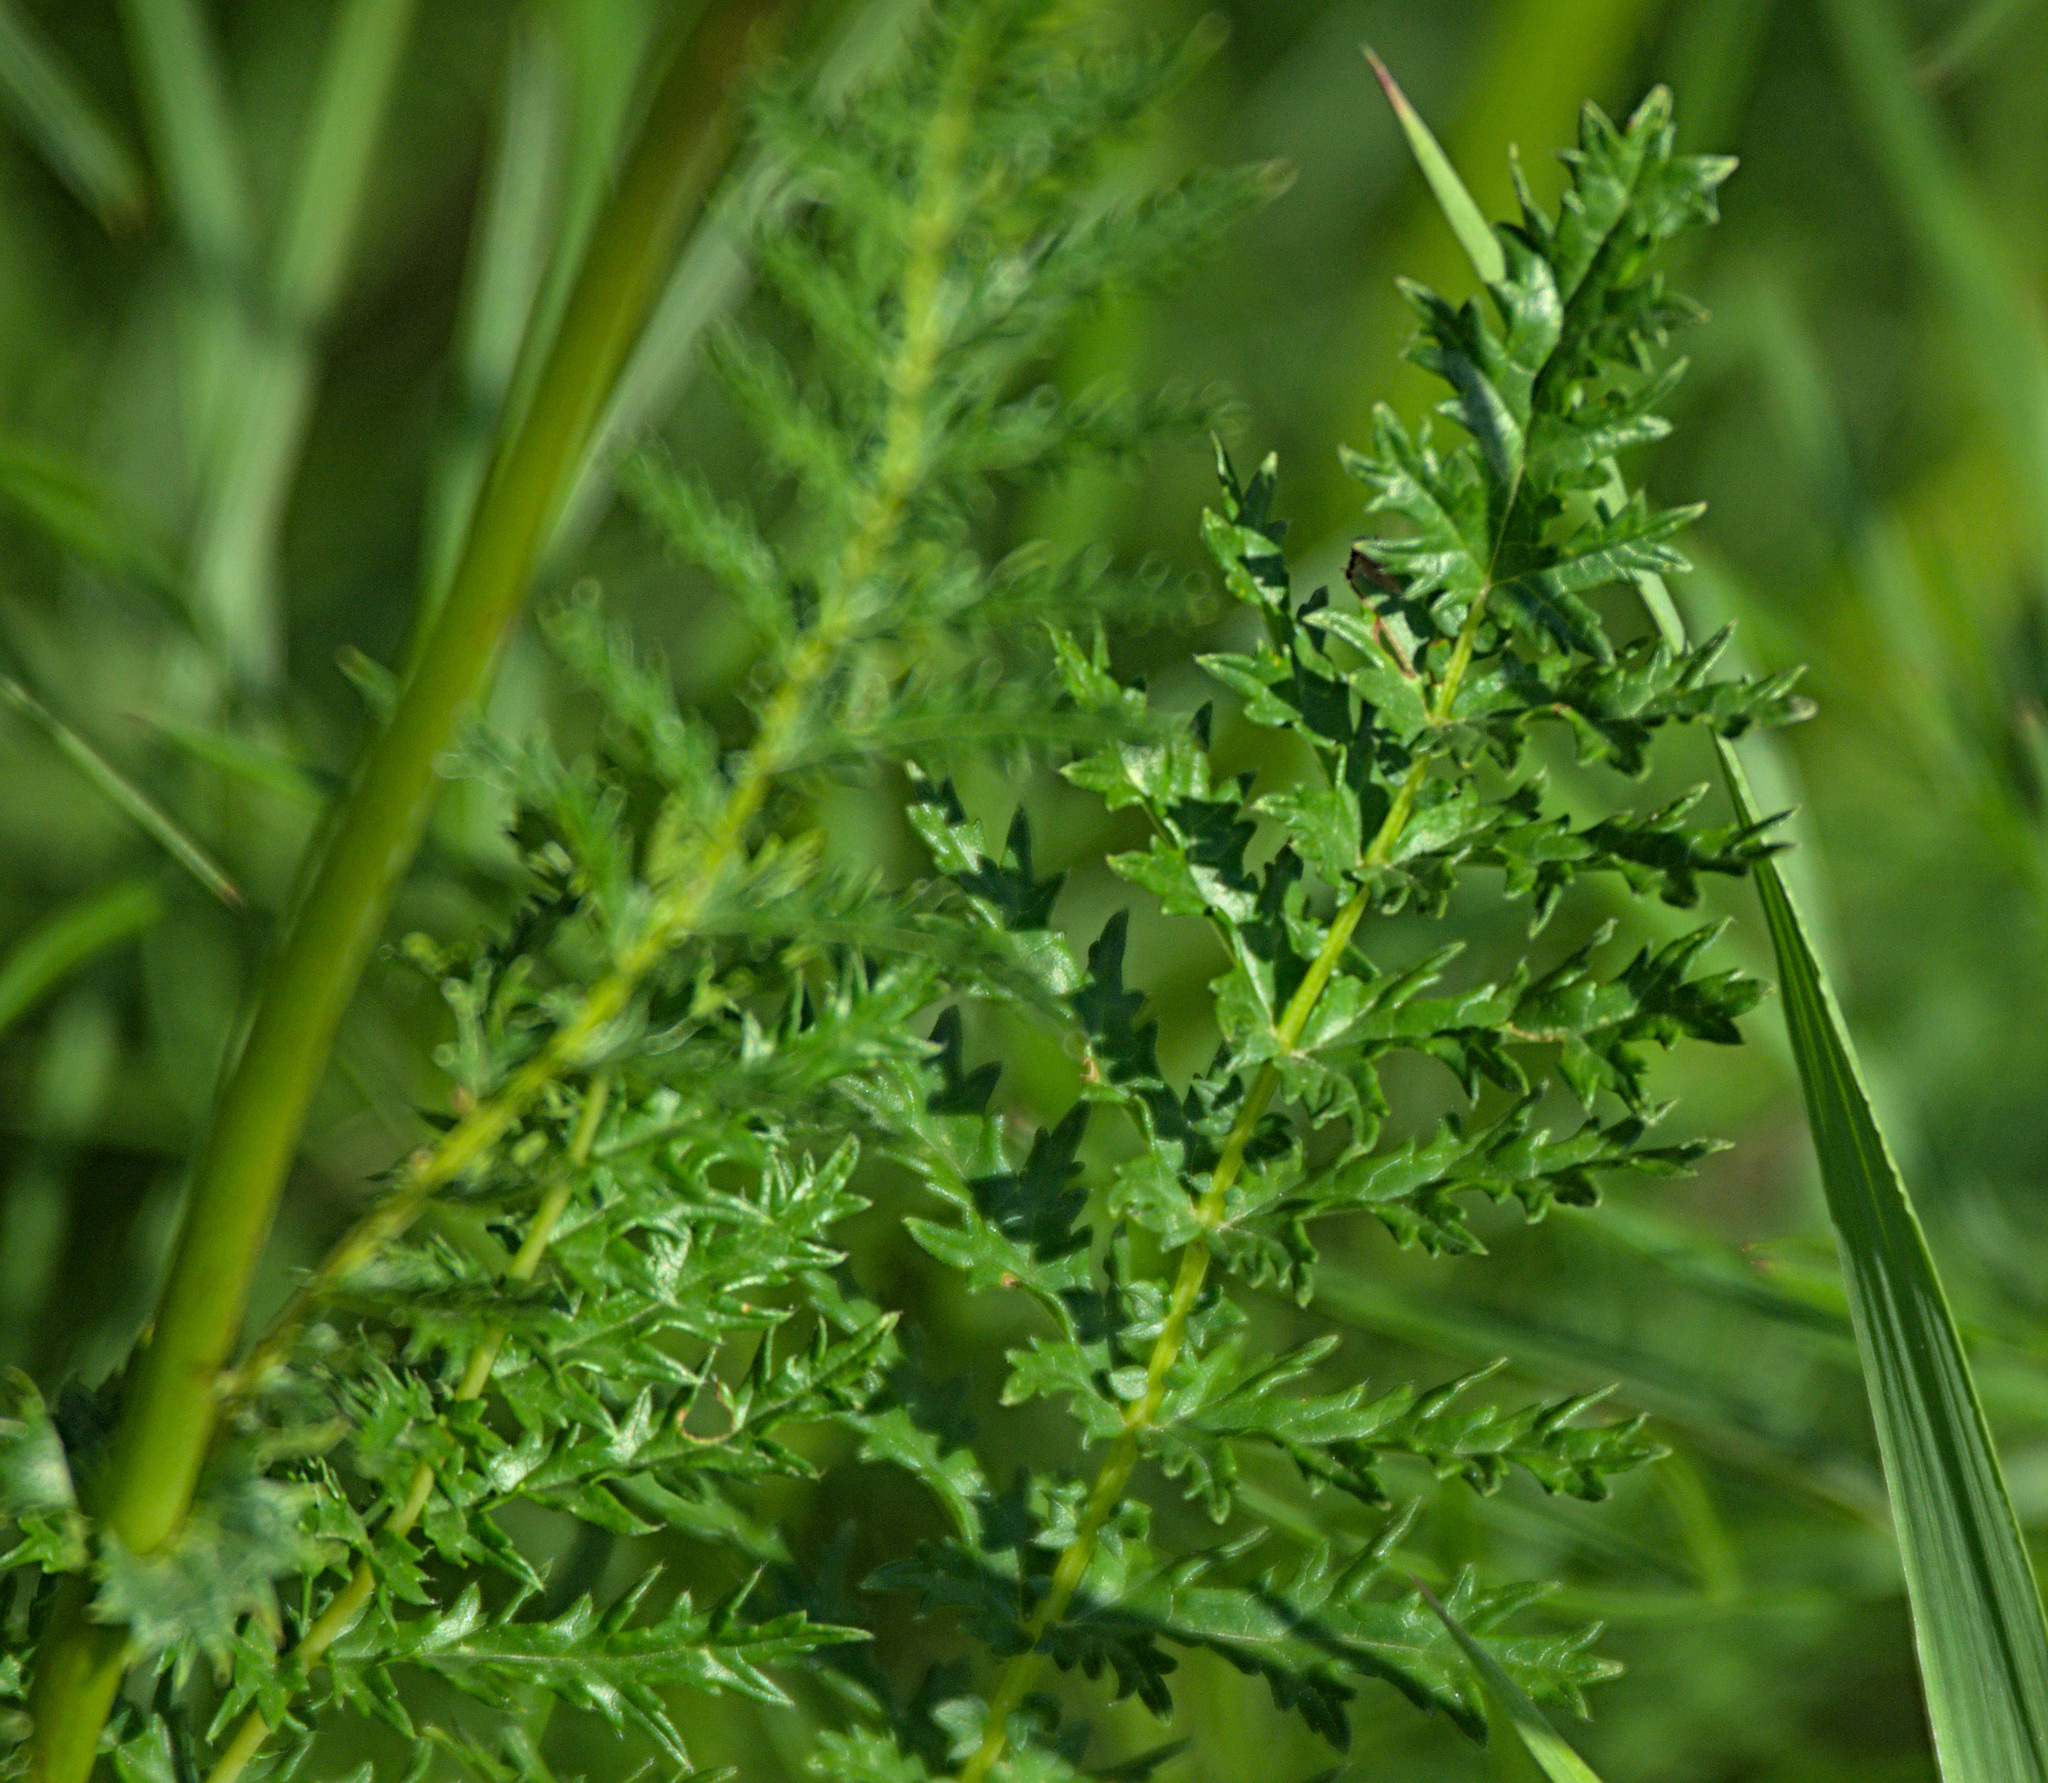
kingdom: Plantae
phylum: Tracheophyta
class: Magnoliopsida
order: Rosales
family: Rosaceae
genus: Filipendula
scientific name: Filipendula vulgaris
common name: Dropwort
